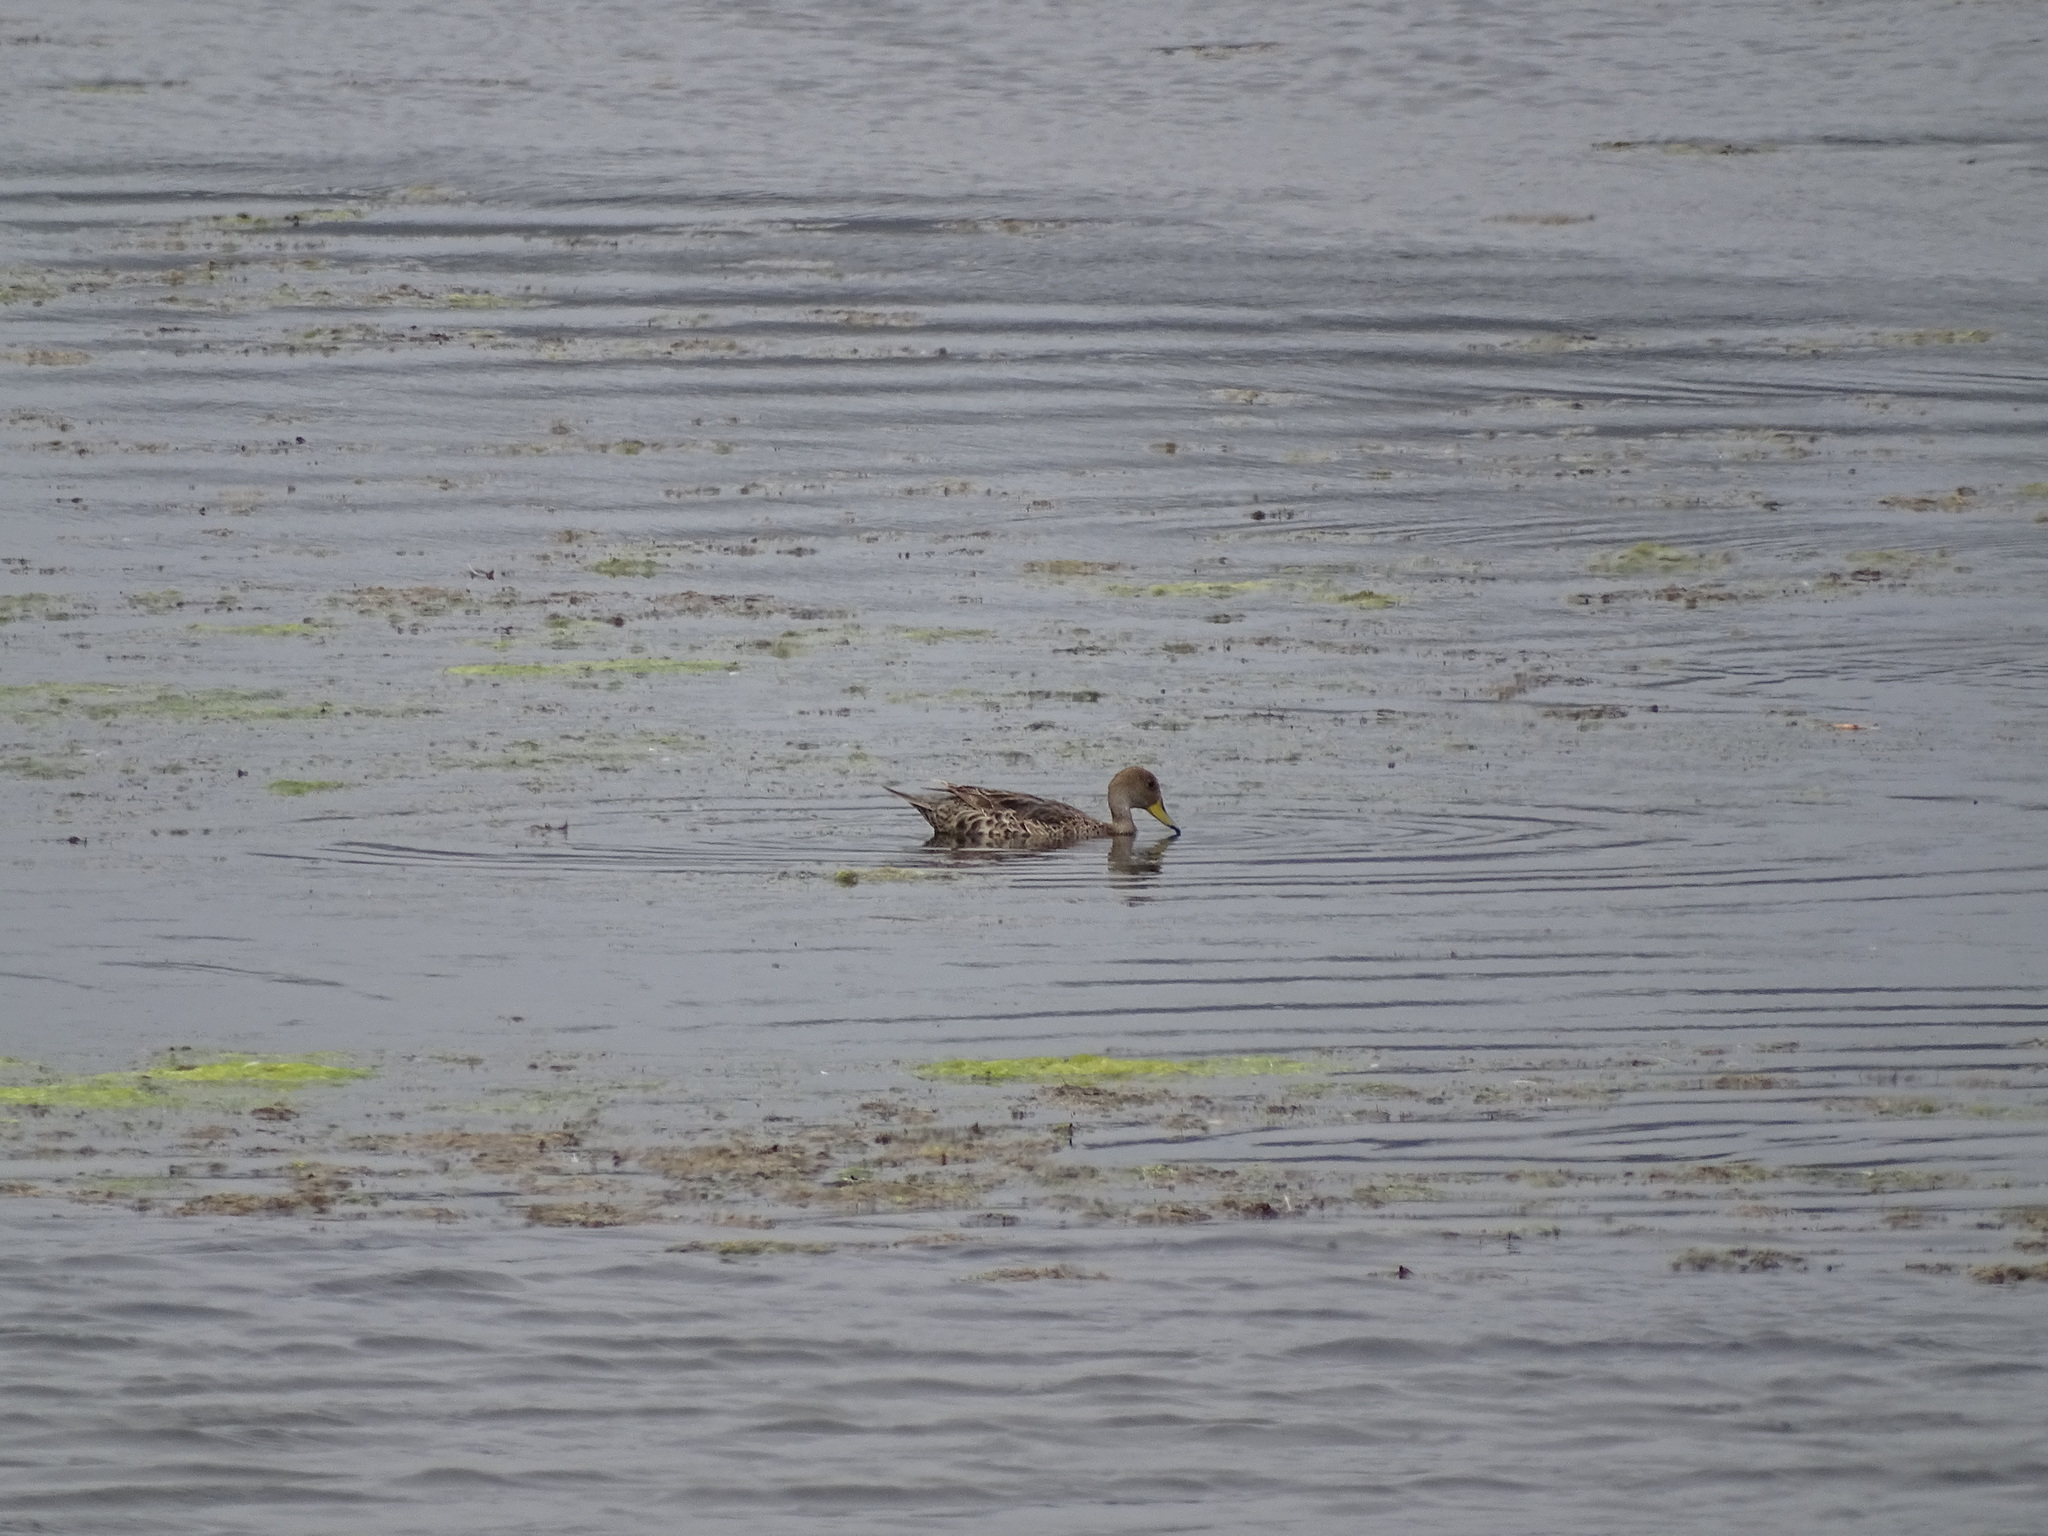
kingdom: Animalia
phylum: Chordata
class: Aves
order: Anseriformes
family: Anatidae
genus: Anas
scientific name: Anas georgica
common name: Yellow-billed pintail
